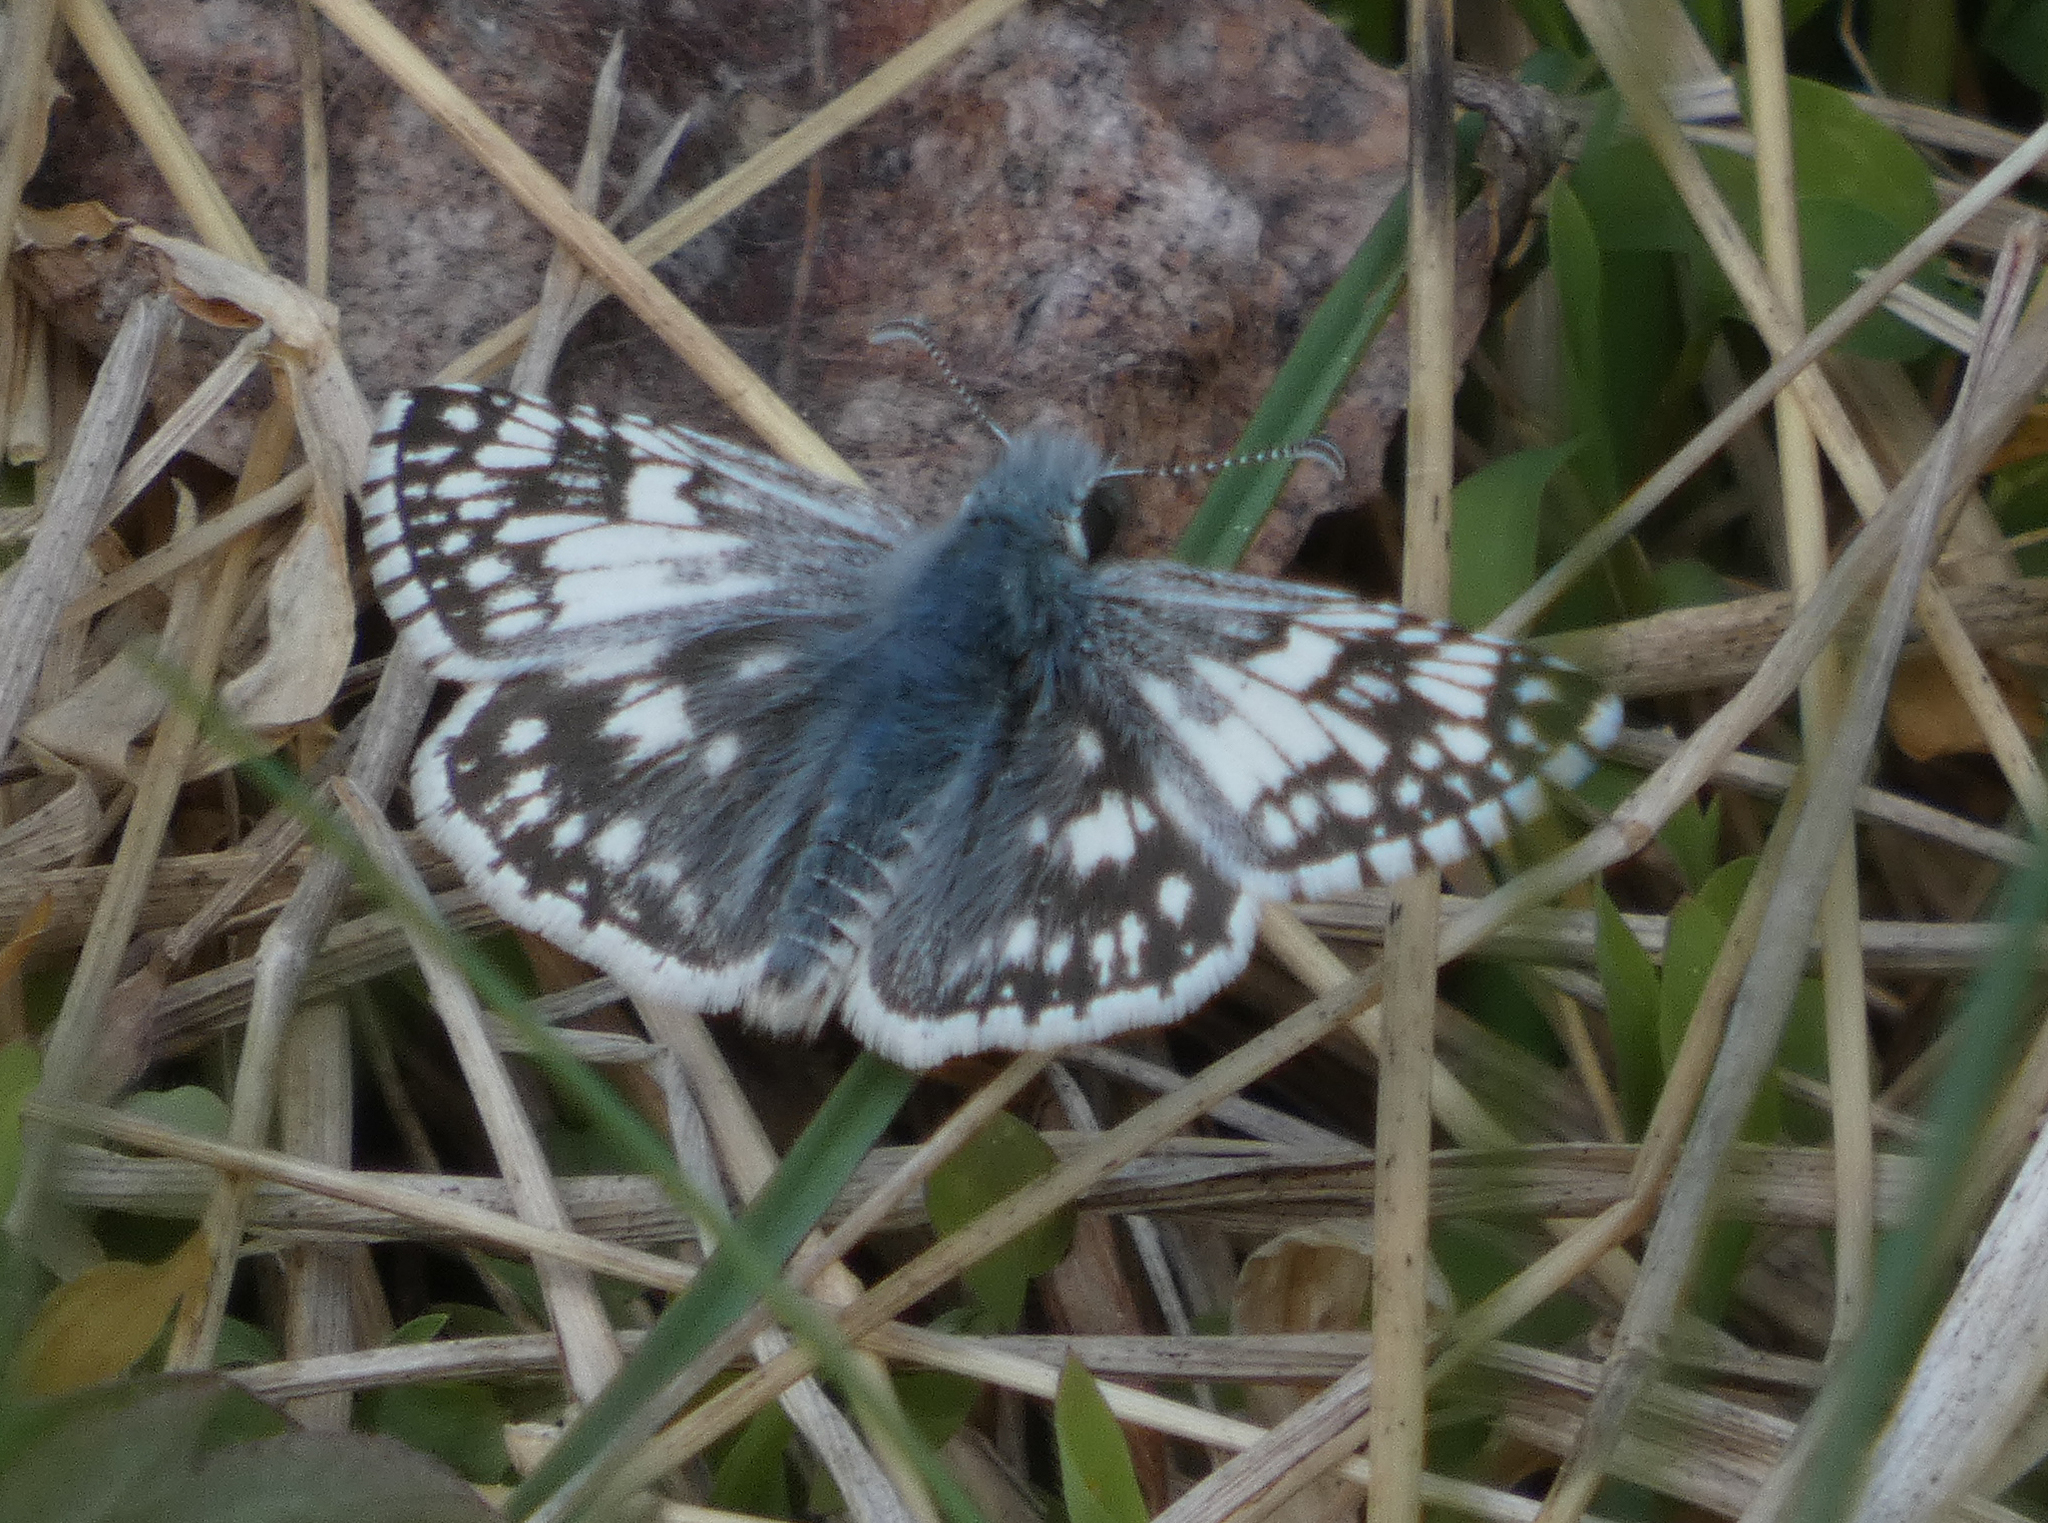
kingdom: Animalia
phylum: Arthropoda
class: Insecta
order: Lepidoptera
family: Hesperiidae
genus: Burnsius
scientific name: Burnsius communis
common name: Common checkered-skipper
